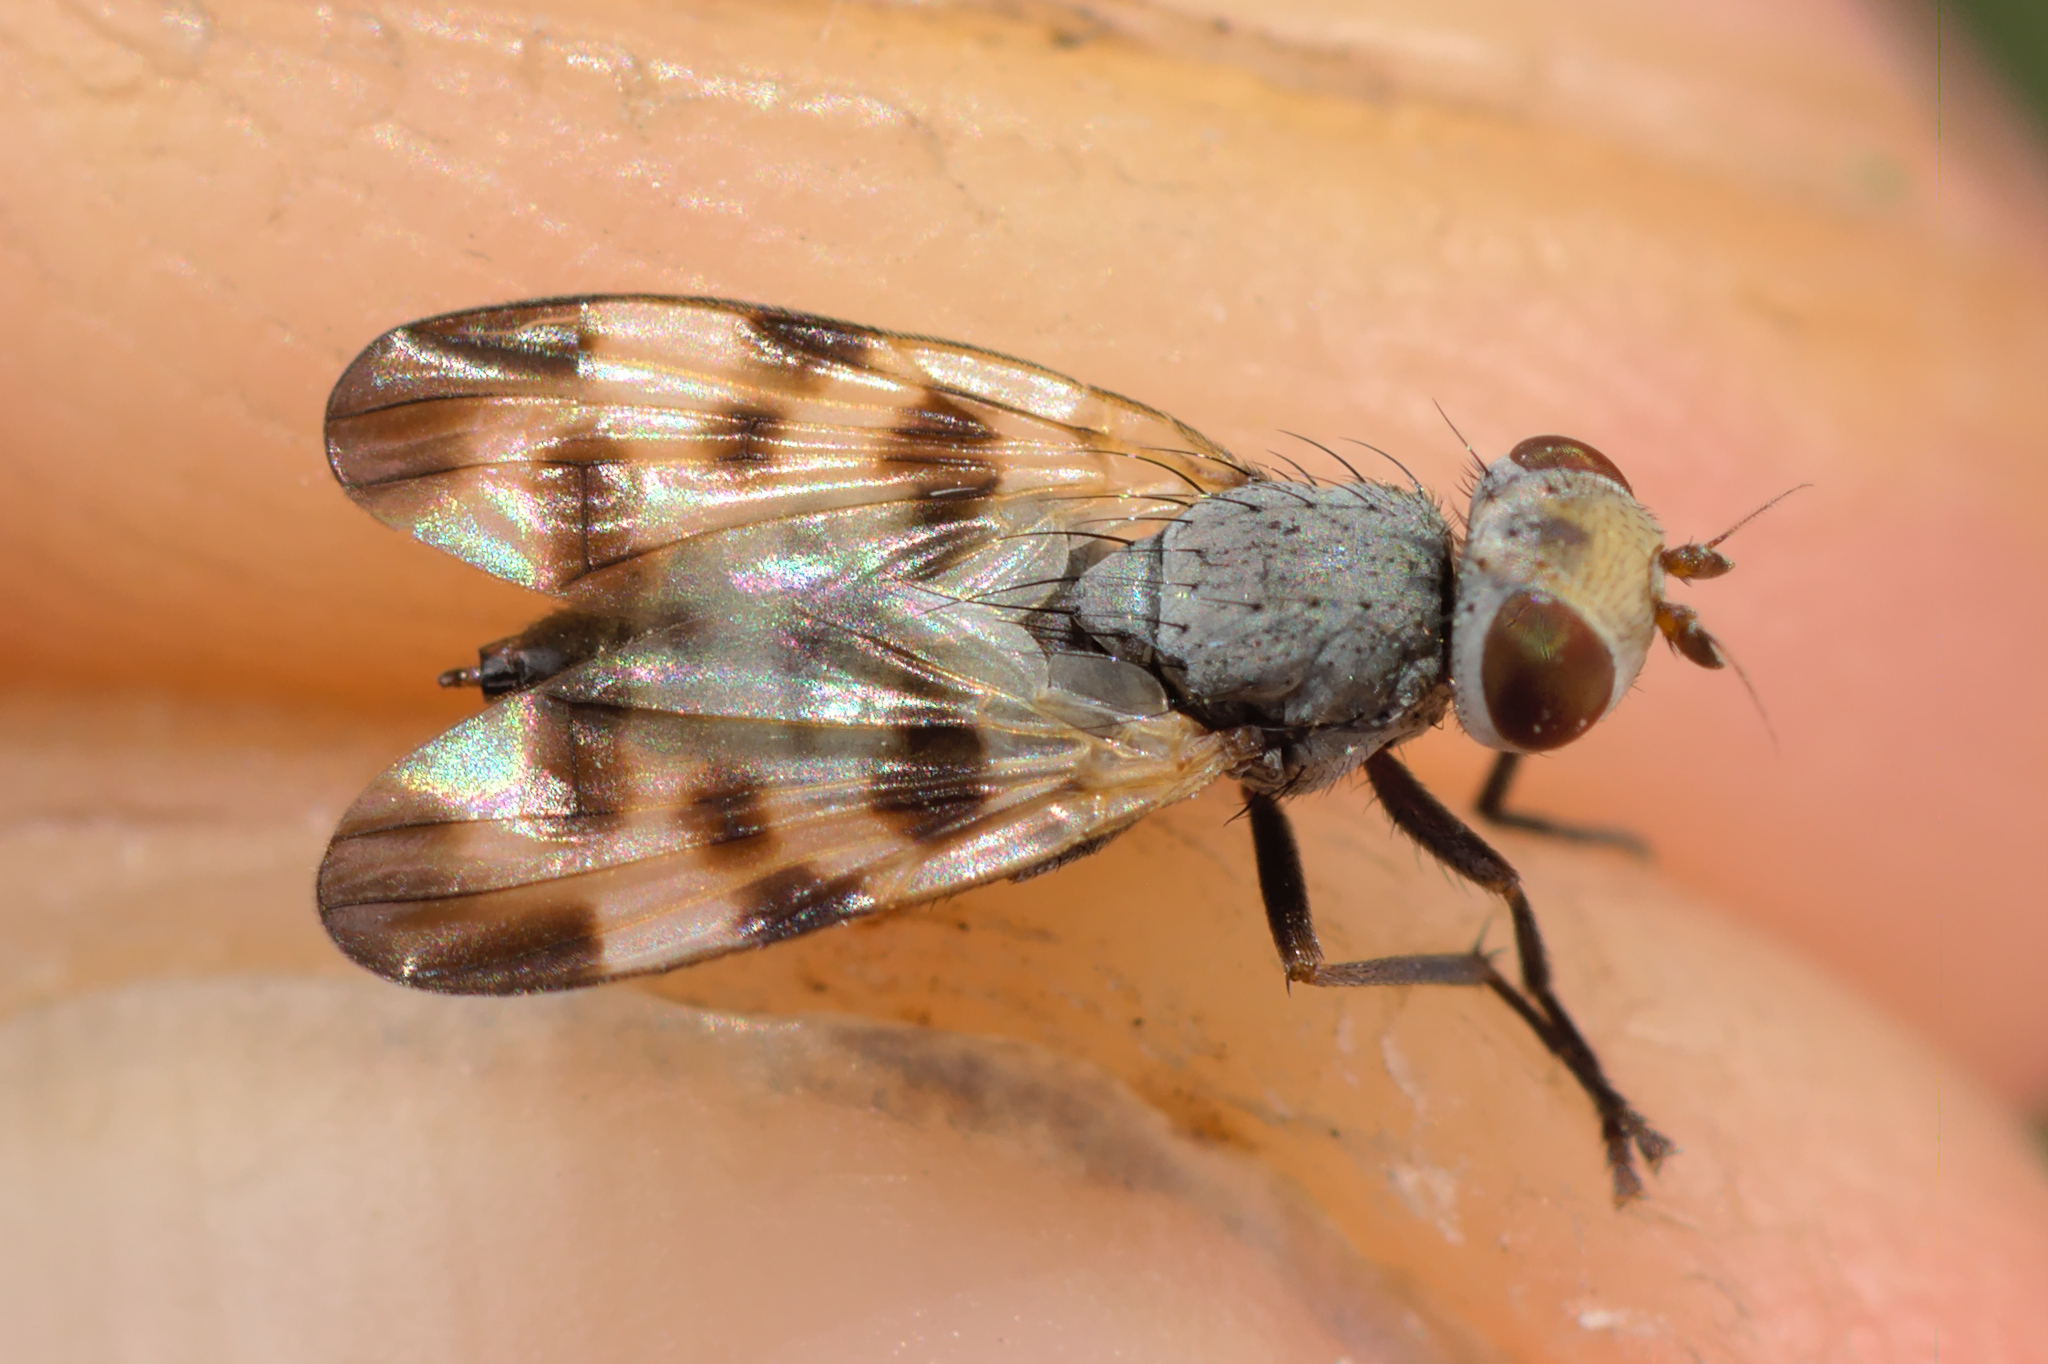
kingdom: Animalia
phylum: Arthropoda
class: Insecta
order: Diptera
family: Ulidiidae
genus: Melieria
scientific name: Melieria crassipennis
